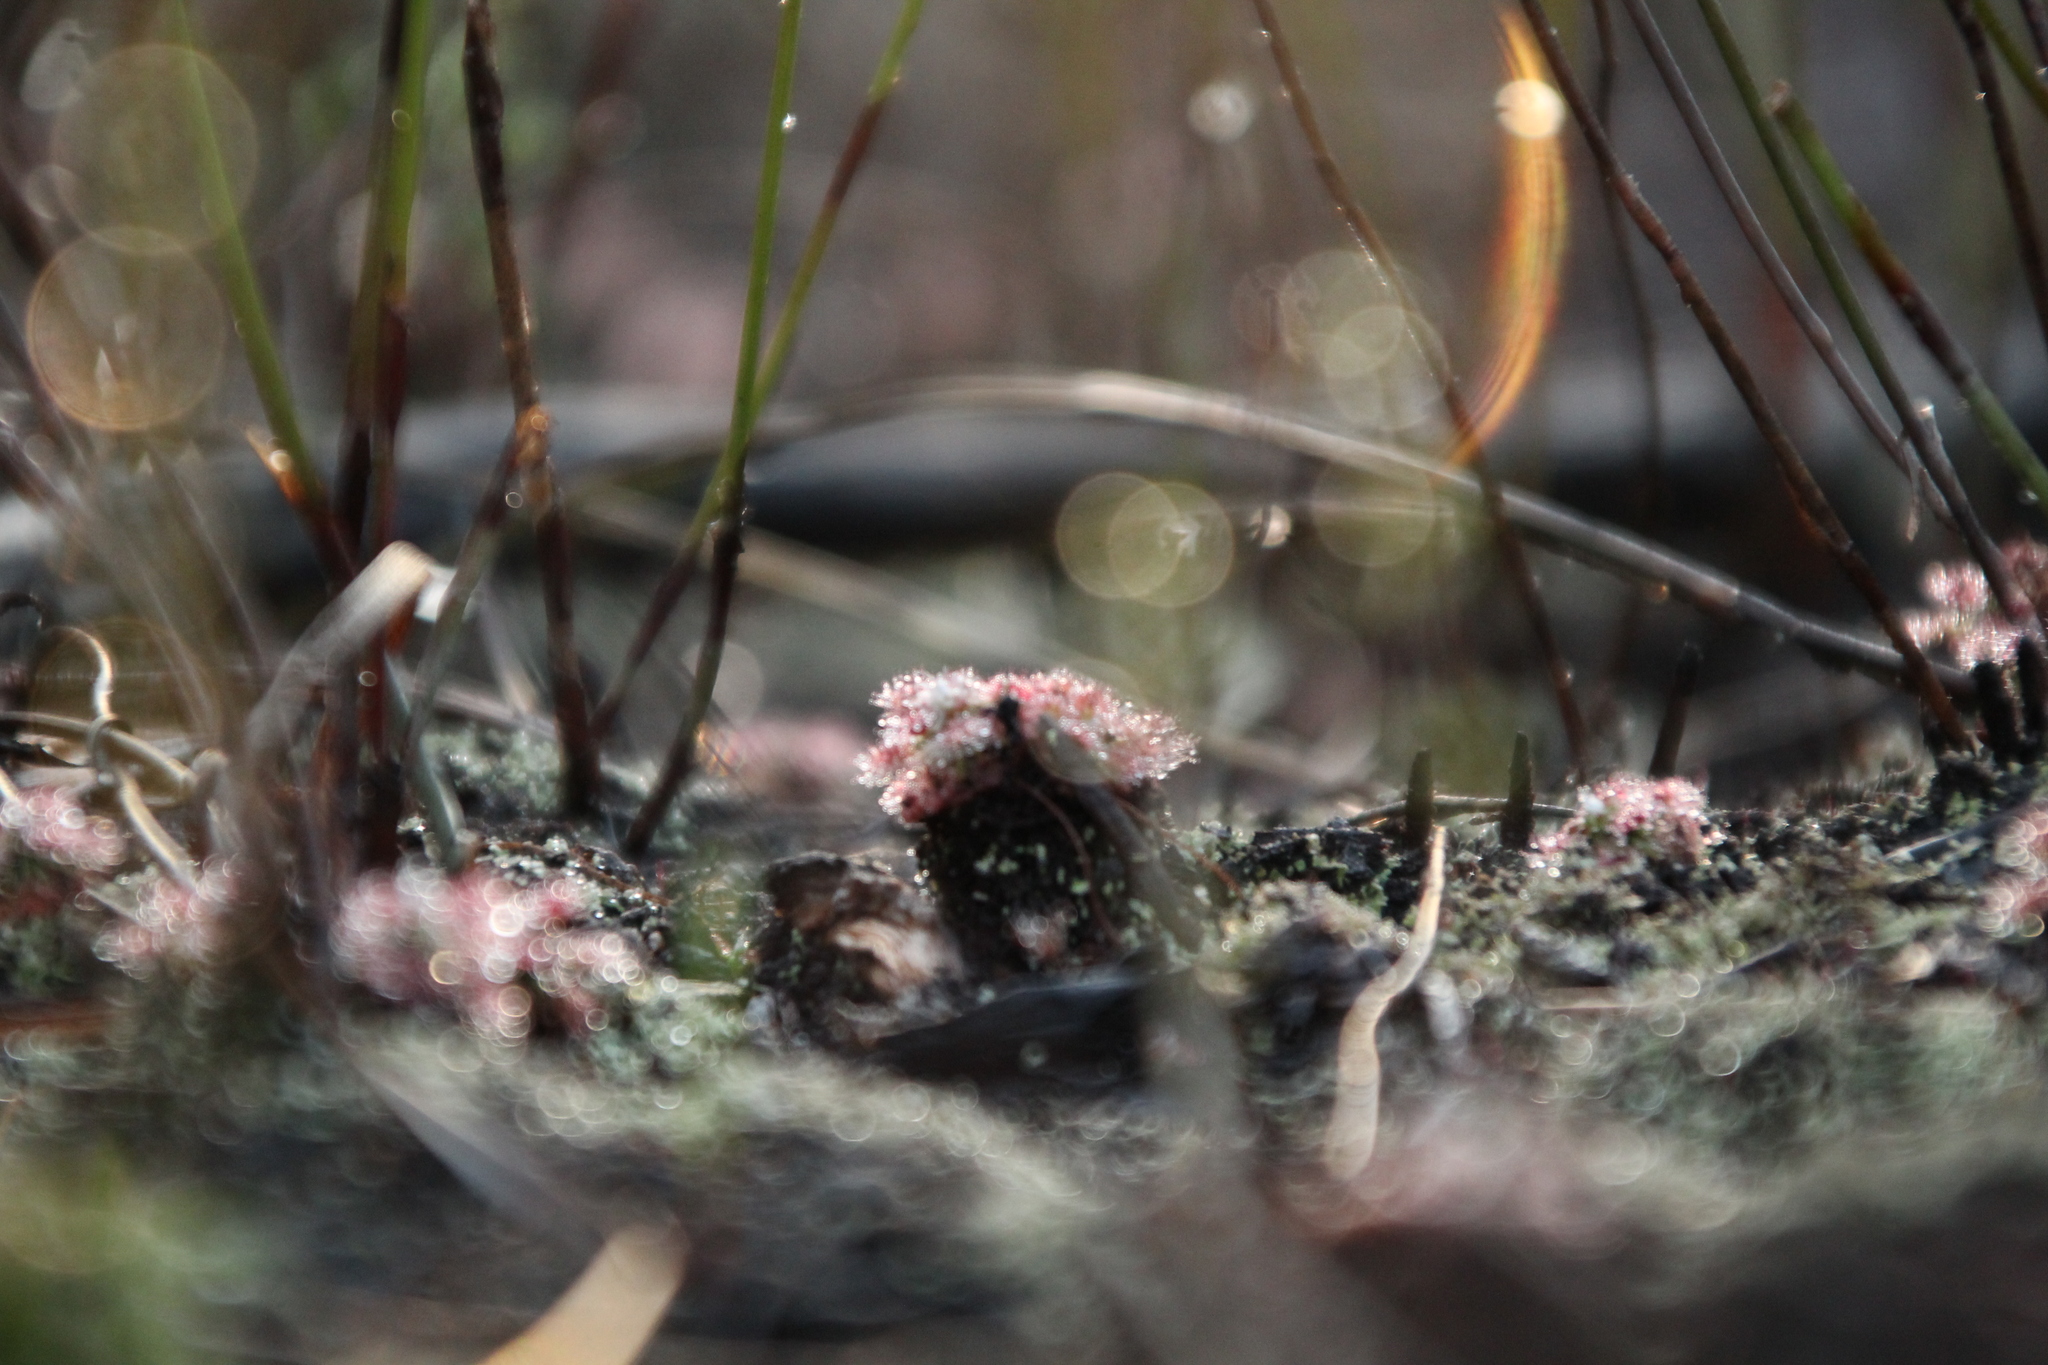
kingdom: Plantae
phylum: Tracheophyta
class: Magnoliopsida
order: Caryophyllales
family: Droseraceae
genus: Drosera
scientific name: Drosera paleacea
